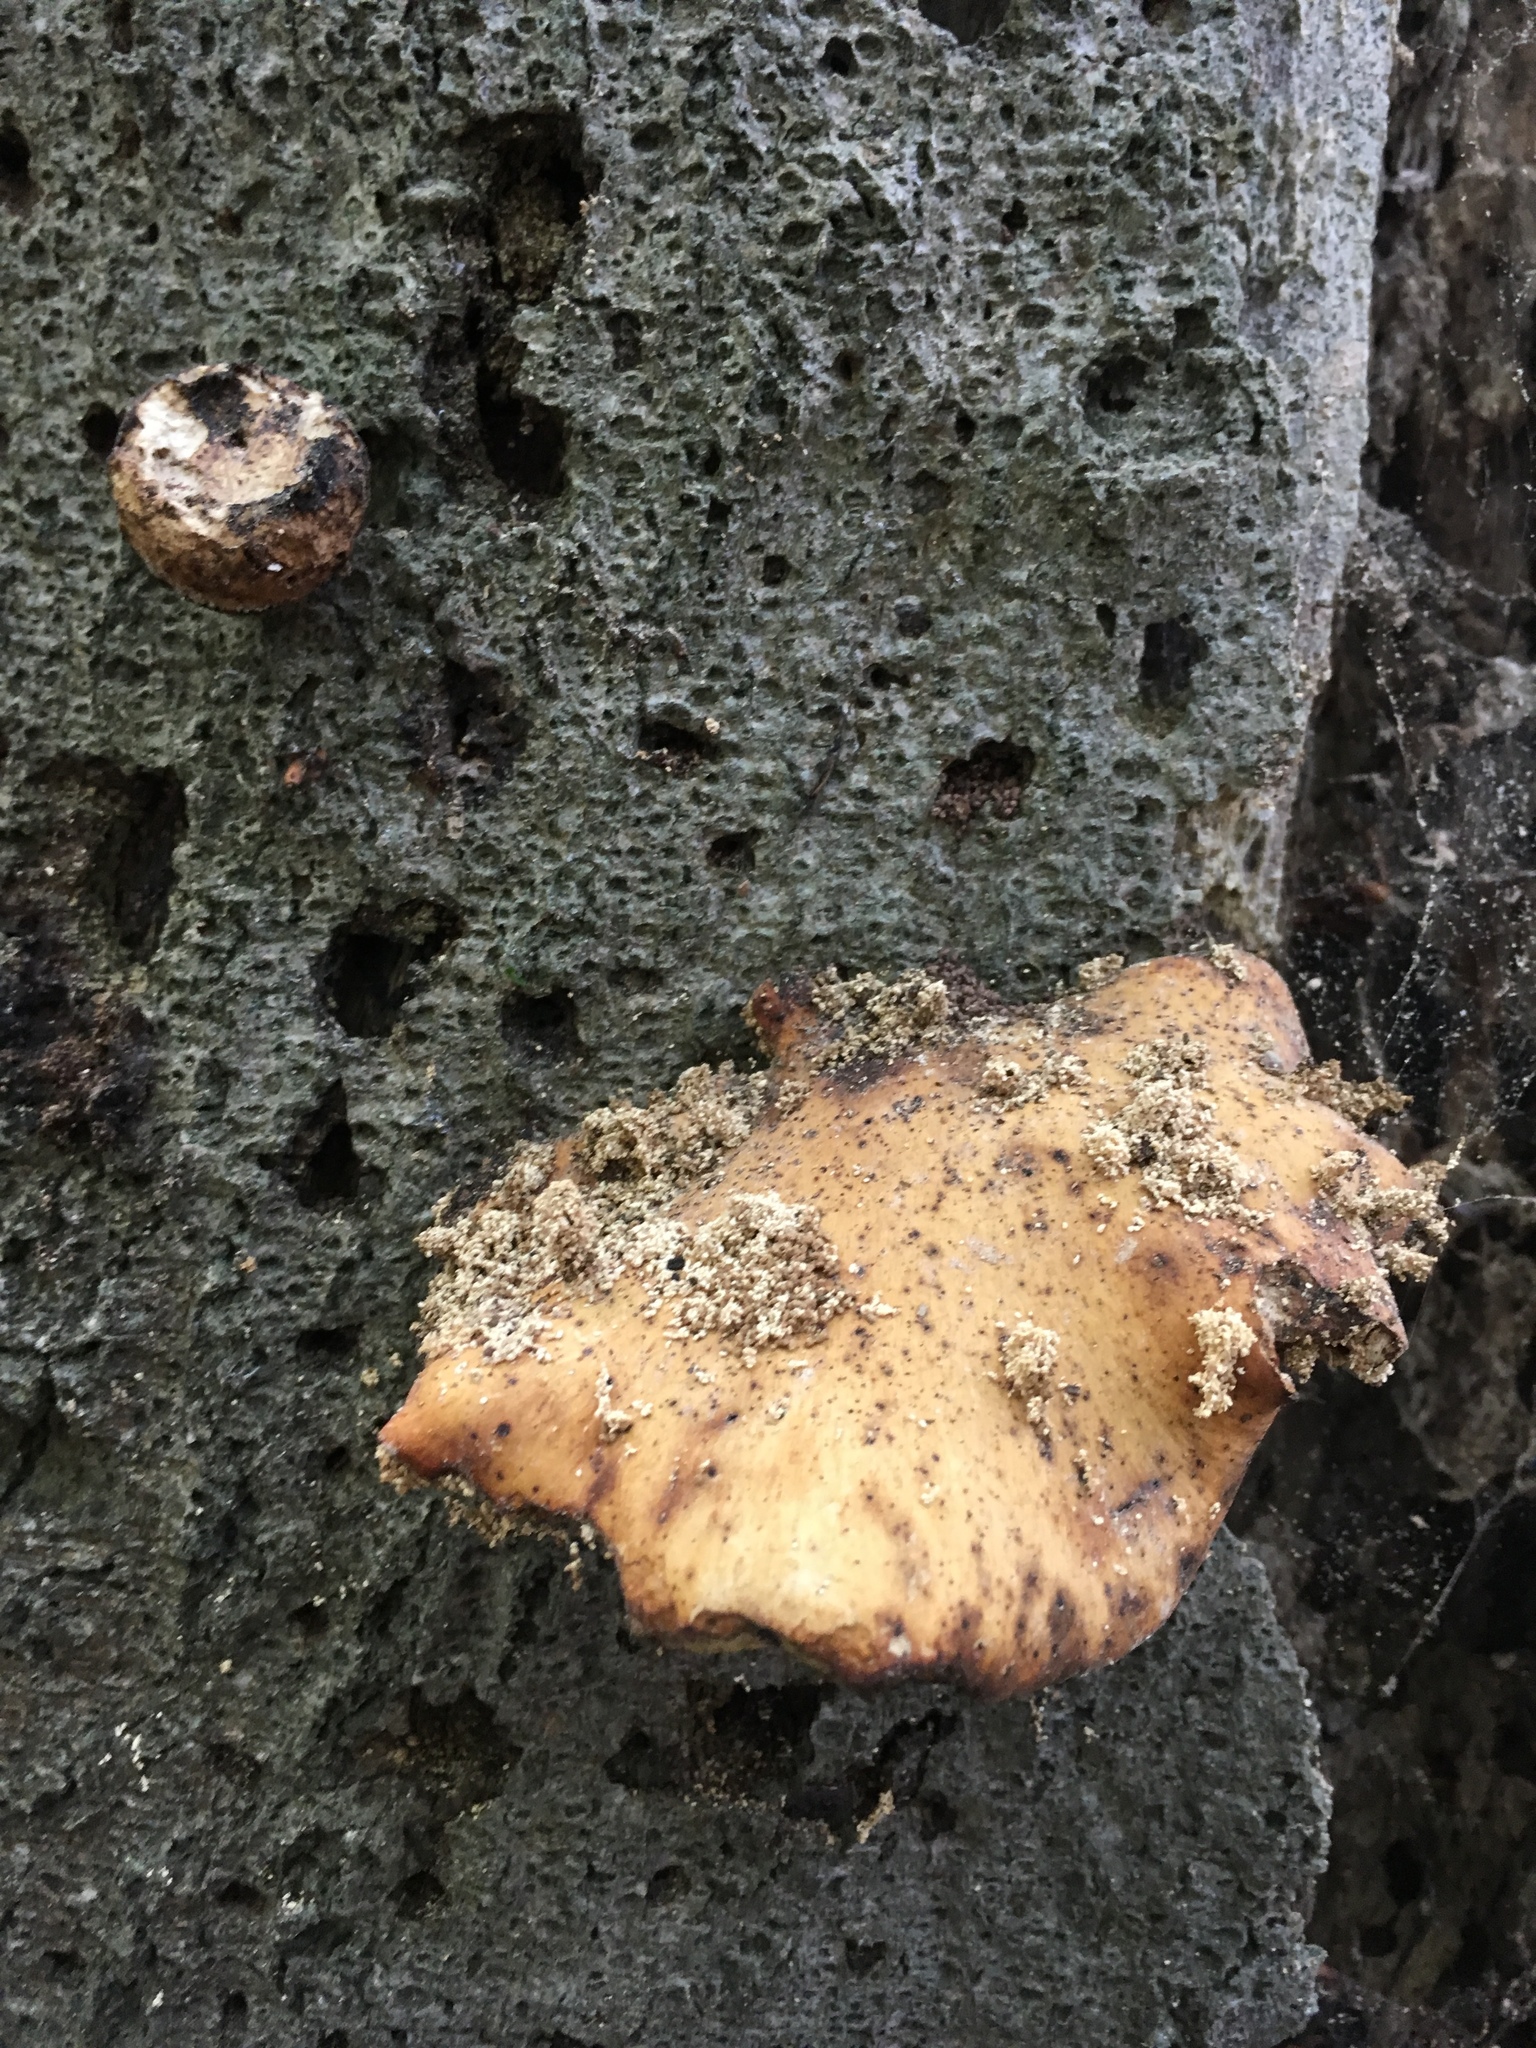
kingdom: Fungi
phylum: Basidiomycota
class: Agaricomycetes
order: Polyporales
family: Polyporaceae
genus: Cerioporus
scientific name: Cerioporus varius
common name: Elegant polypore
